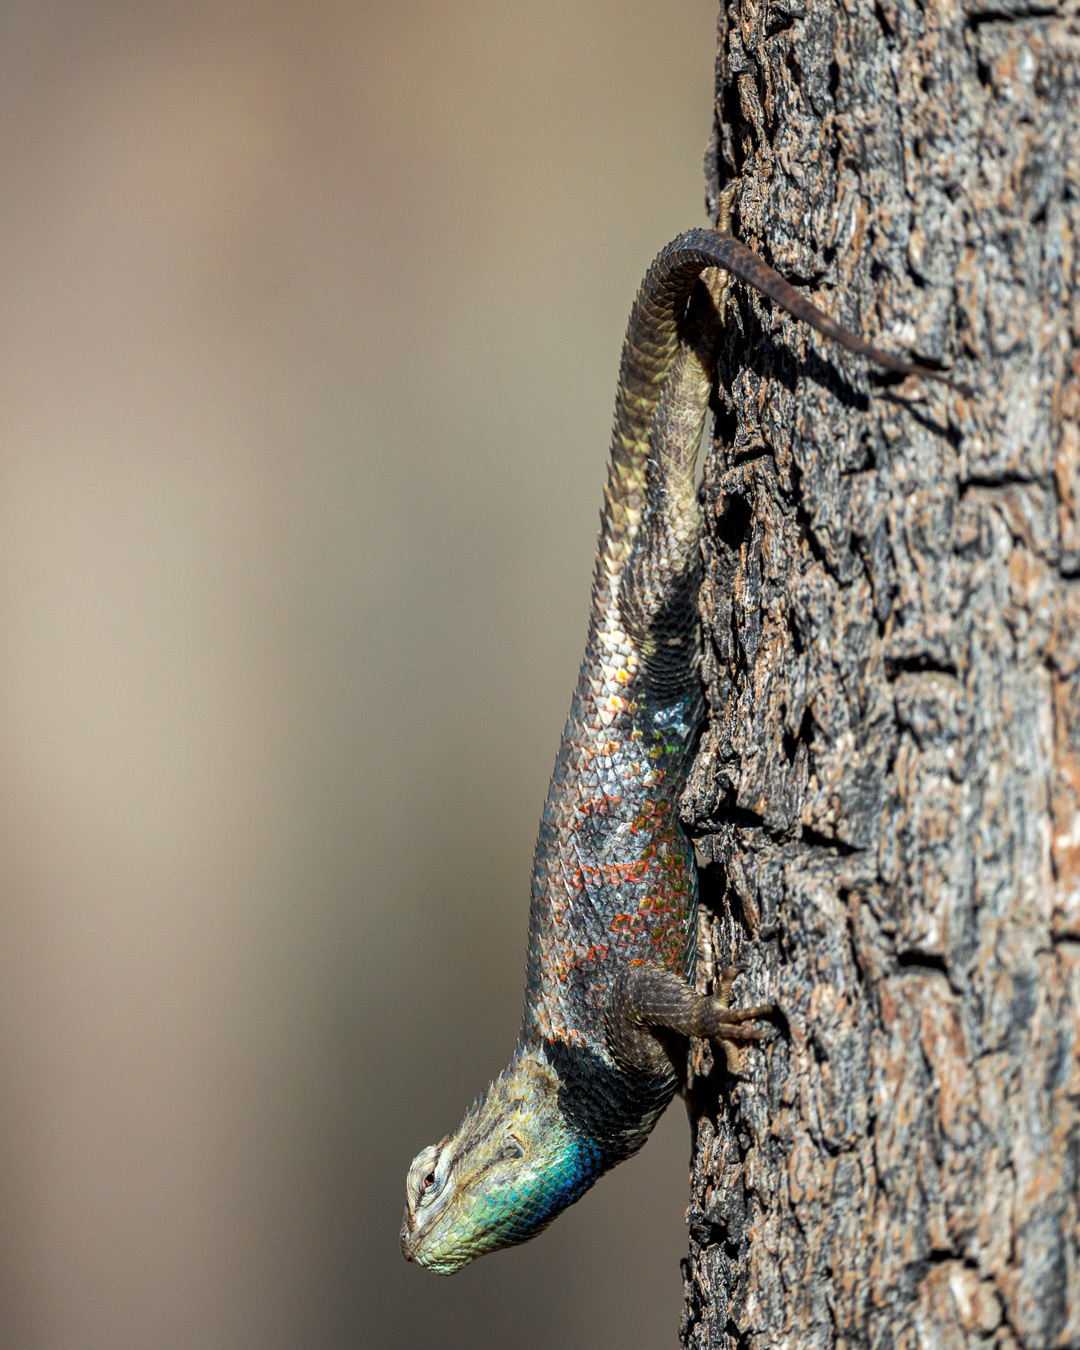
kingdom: Animalia
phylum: Chordata
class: Squamata
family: Phrynosomatidae
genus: Sceloporus
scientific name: Sceloporus magister
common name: Desert spiny lizard
